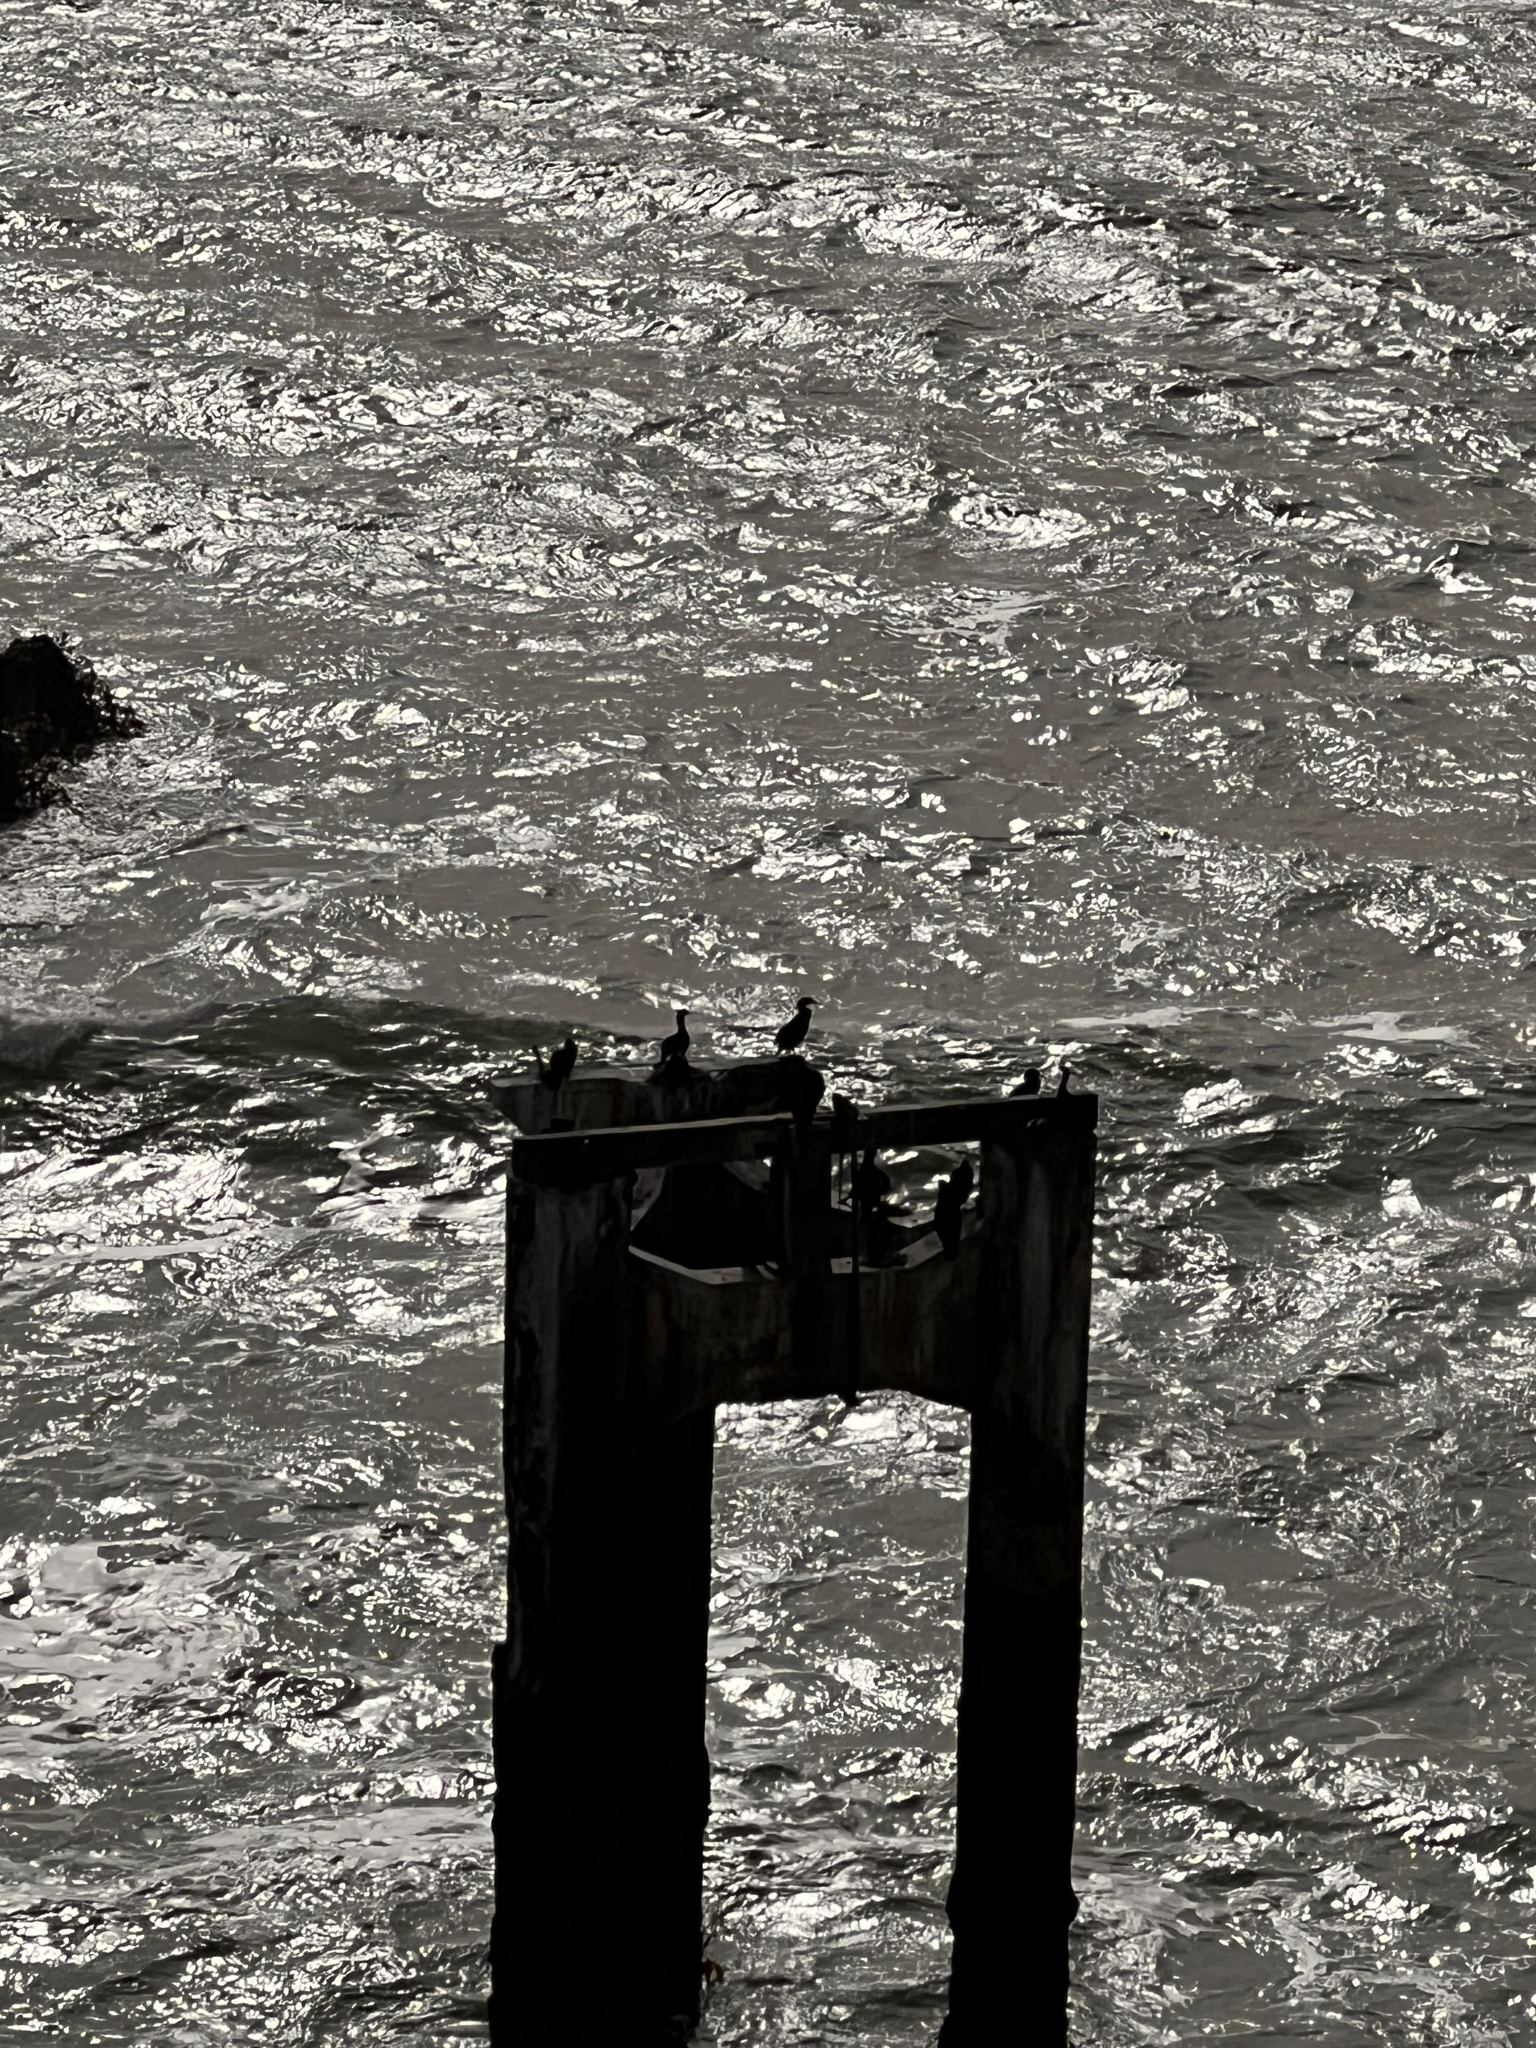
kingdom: Animalia
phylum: Chordata
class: Aves
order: Suliformes
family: Phalacrocoracidae
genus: Urile
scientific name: Urile penicillatus
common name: Brandt's cormorant
